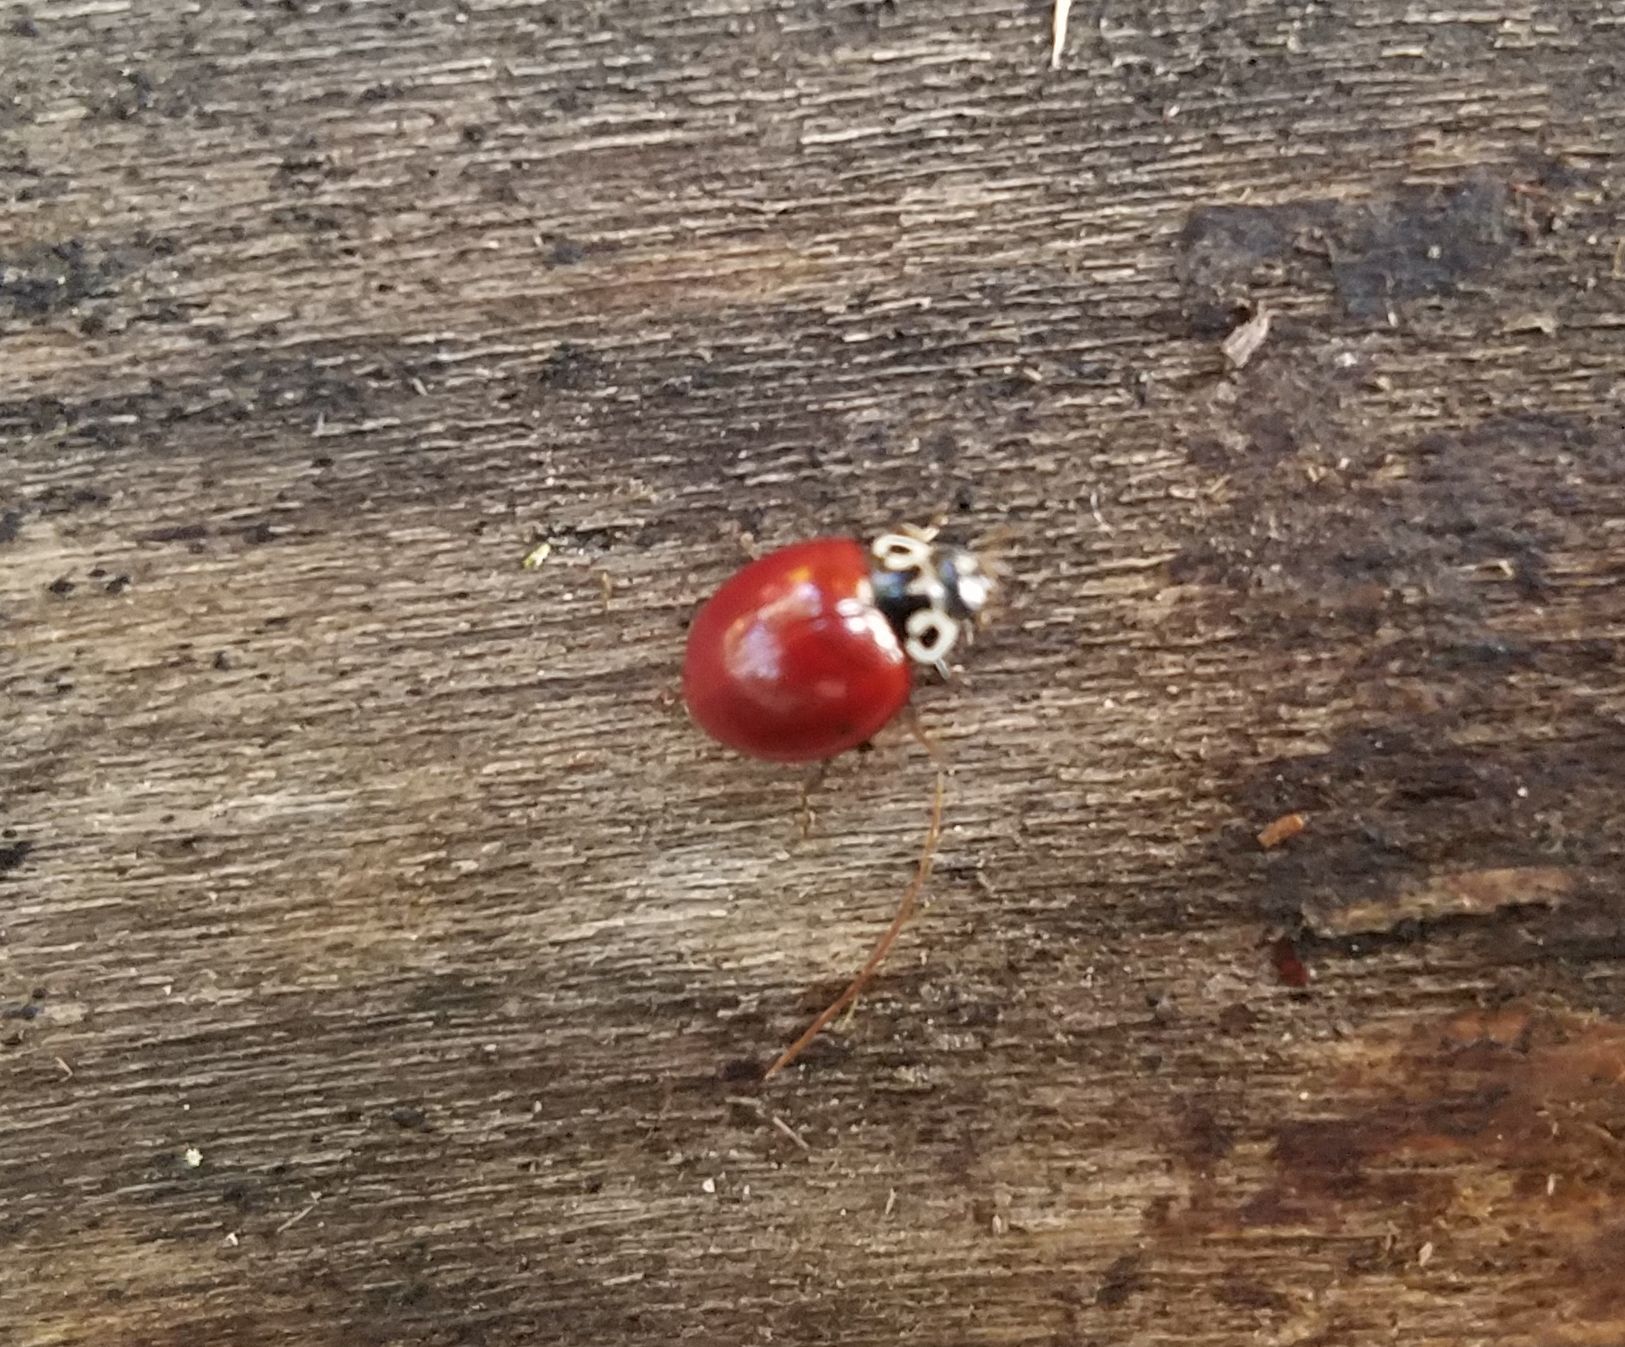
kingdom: Animalia
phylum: Arthropoda
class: Insecta
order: Coleoptera
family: Coccinellidae
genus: Cycloneda
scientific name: Cycloneda polita
